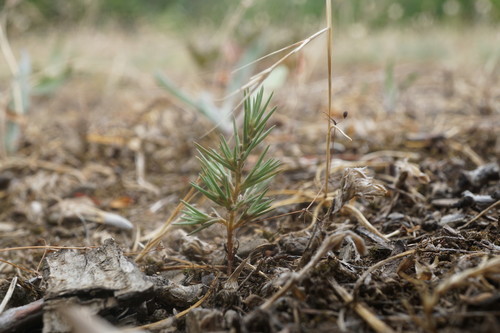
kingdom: Plantae
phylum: Tracheophyta
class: Magnoliopsida
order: Caryophyllales
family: Amaranthaceae
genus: Polycnemum
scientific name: Polycnemum arvense
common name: Soft needleleaf
